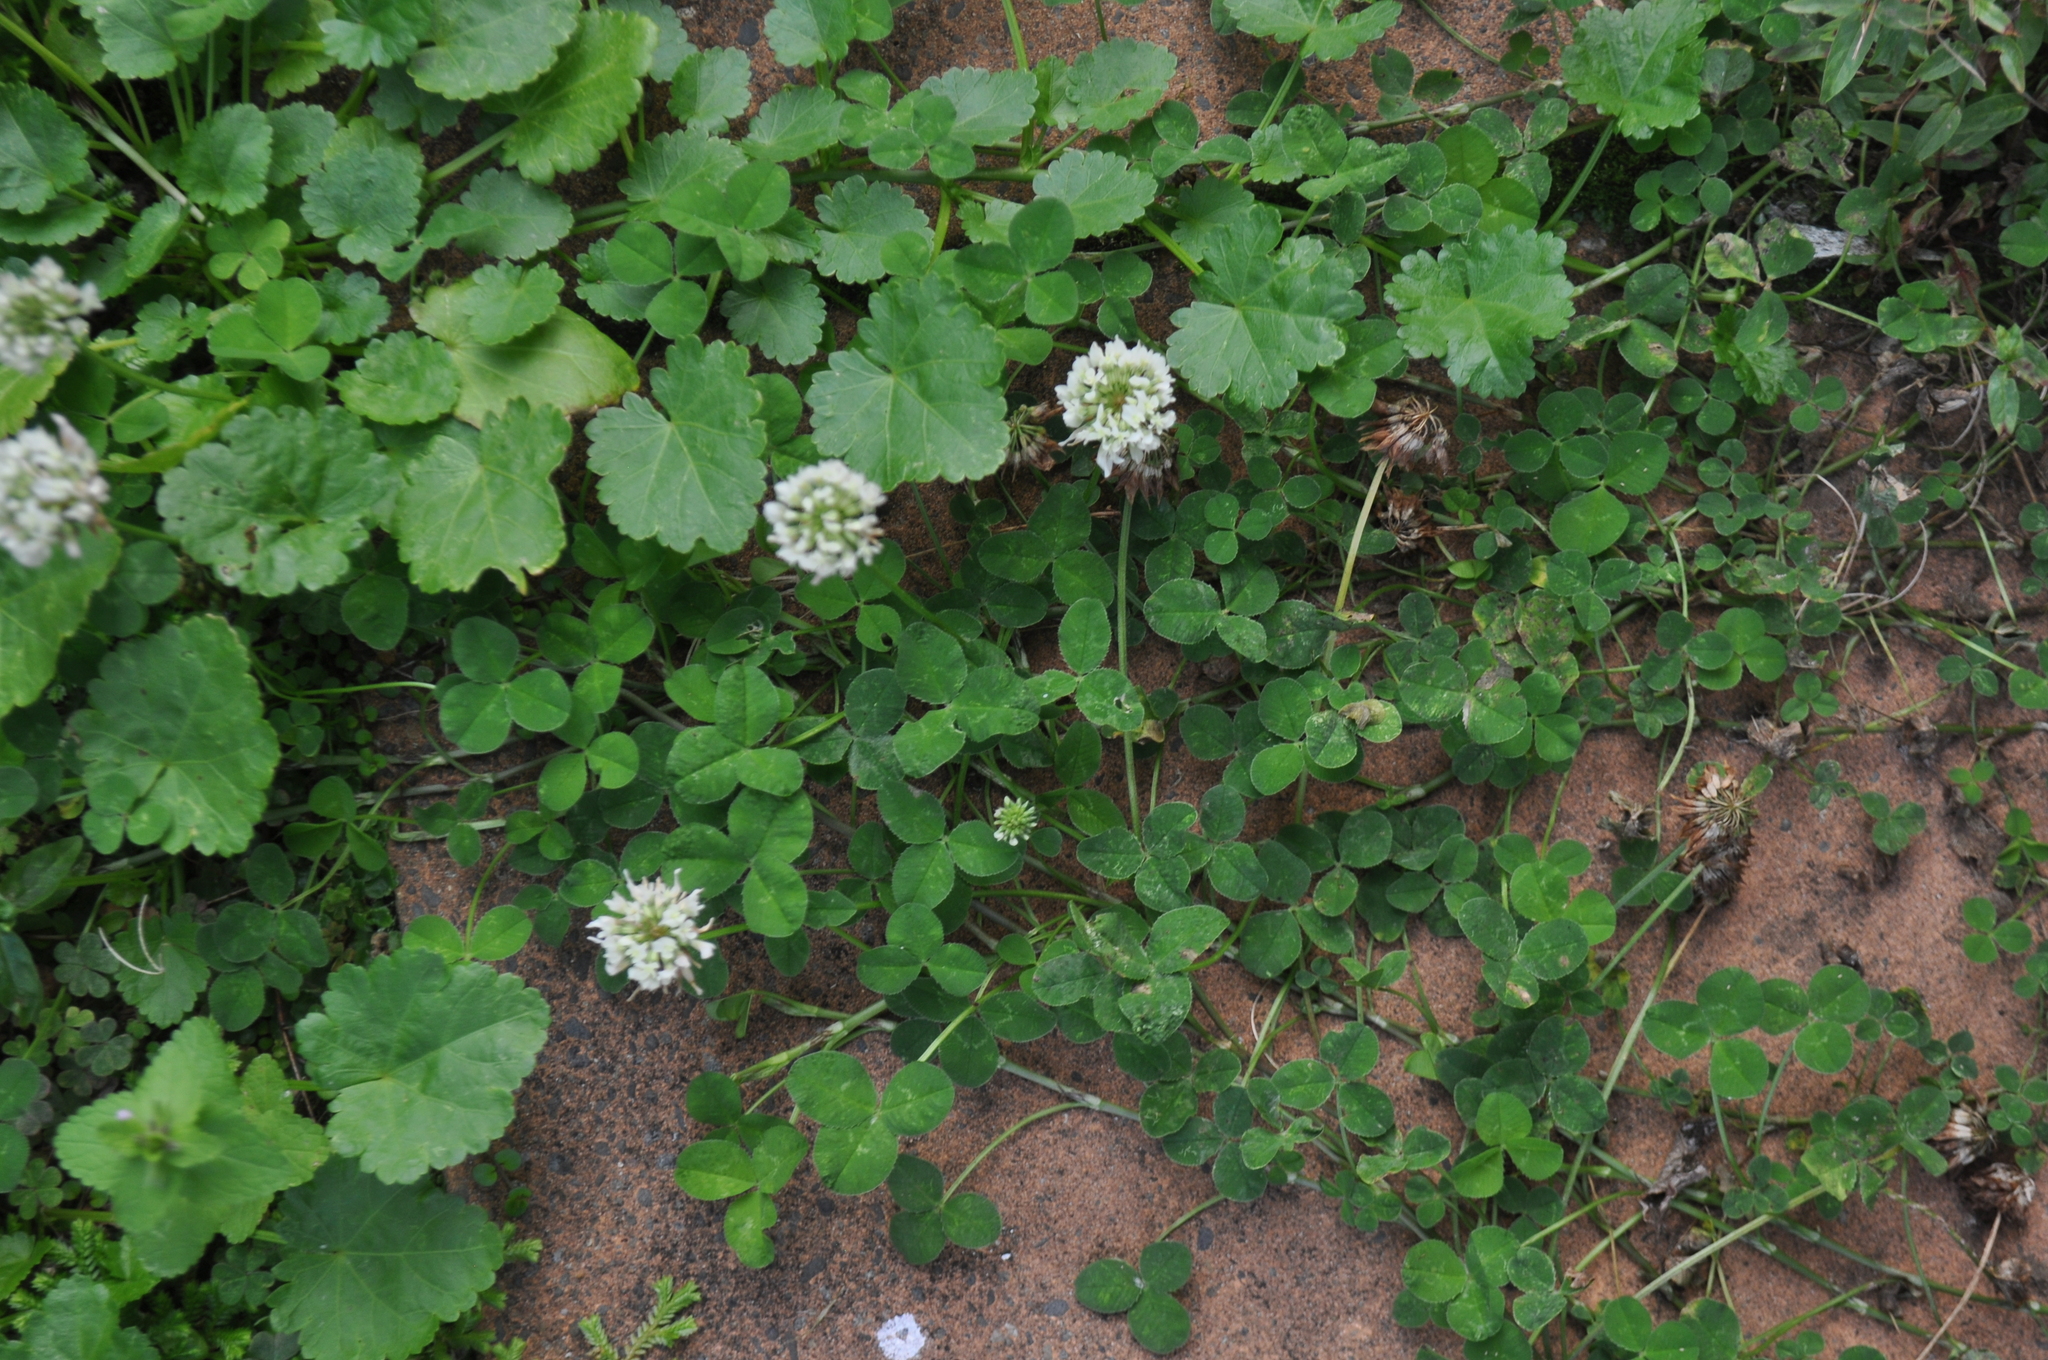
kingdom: Plantae
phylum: Tracheophyta
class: Magnoliopsida
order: Fabales
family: Fabaceae
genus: Trifolium
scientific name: Trifolium repens
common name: White clover
